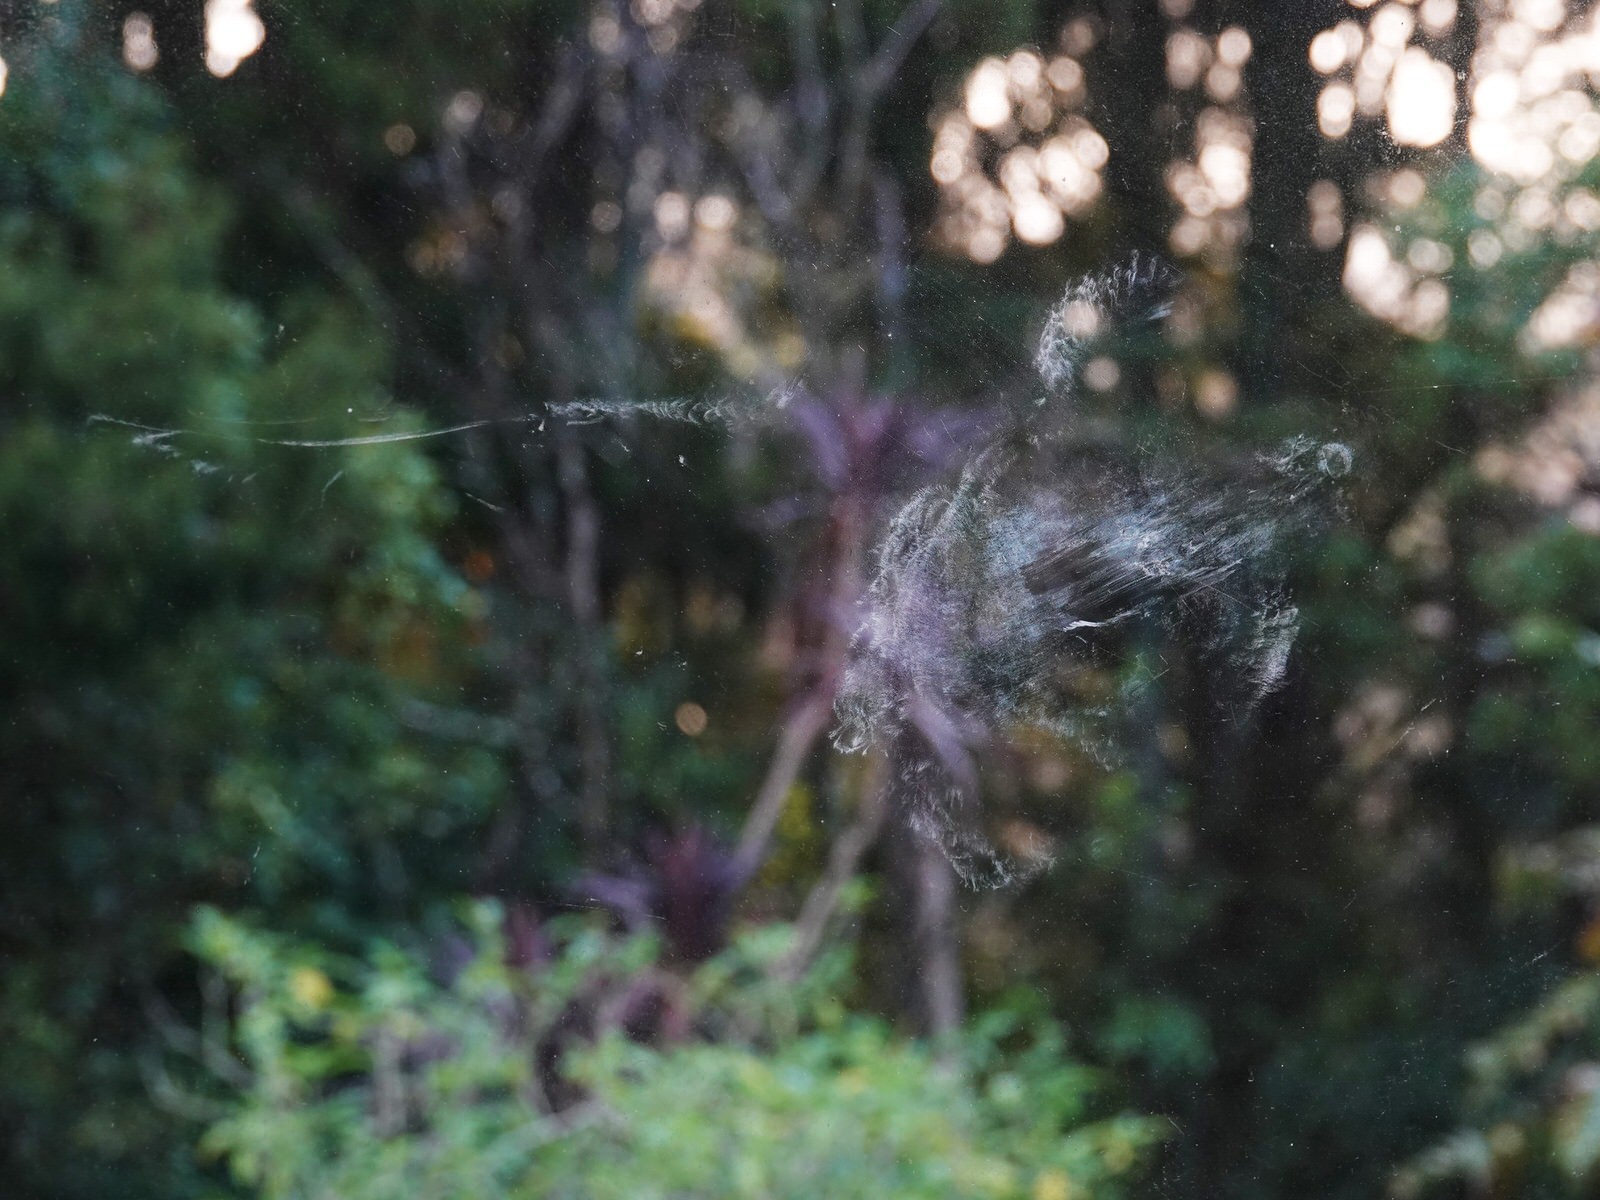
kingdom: Animalia
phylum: Chordata
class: Aves
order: Columbiformes
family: Columbidae
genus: Hemiphaga
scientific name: Hemiphaga novaeseelandiae
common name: New zealand pigeon
